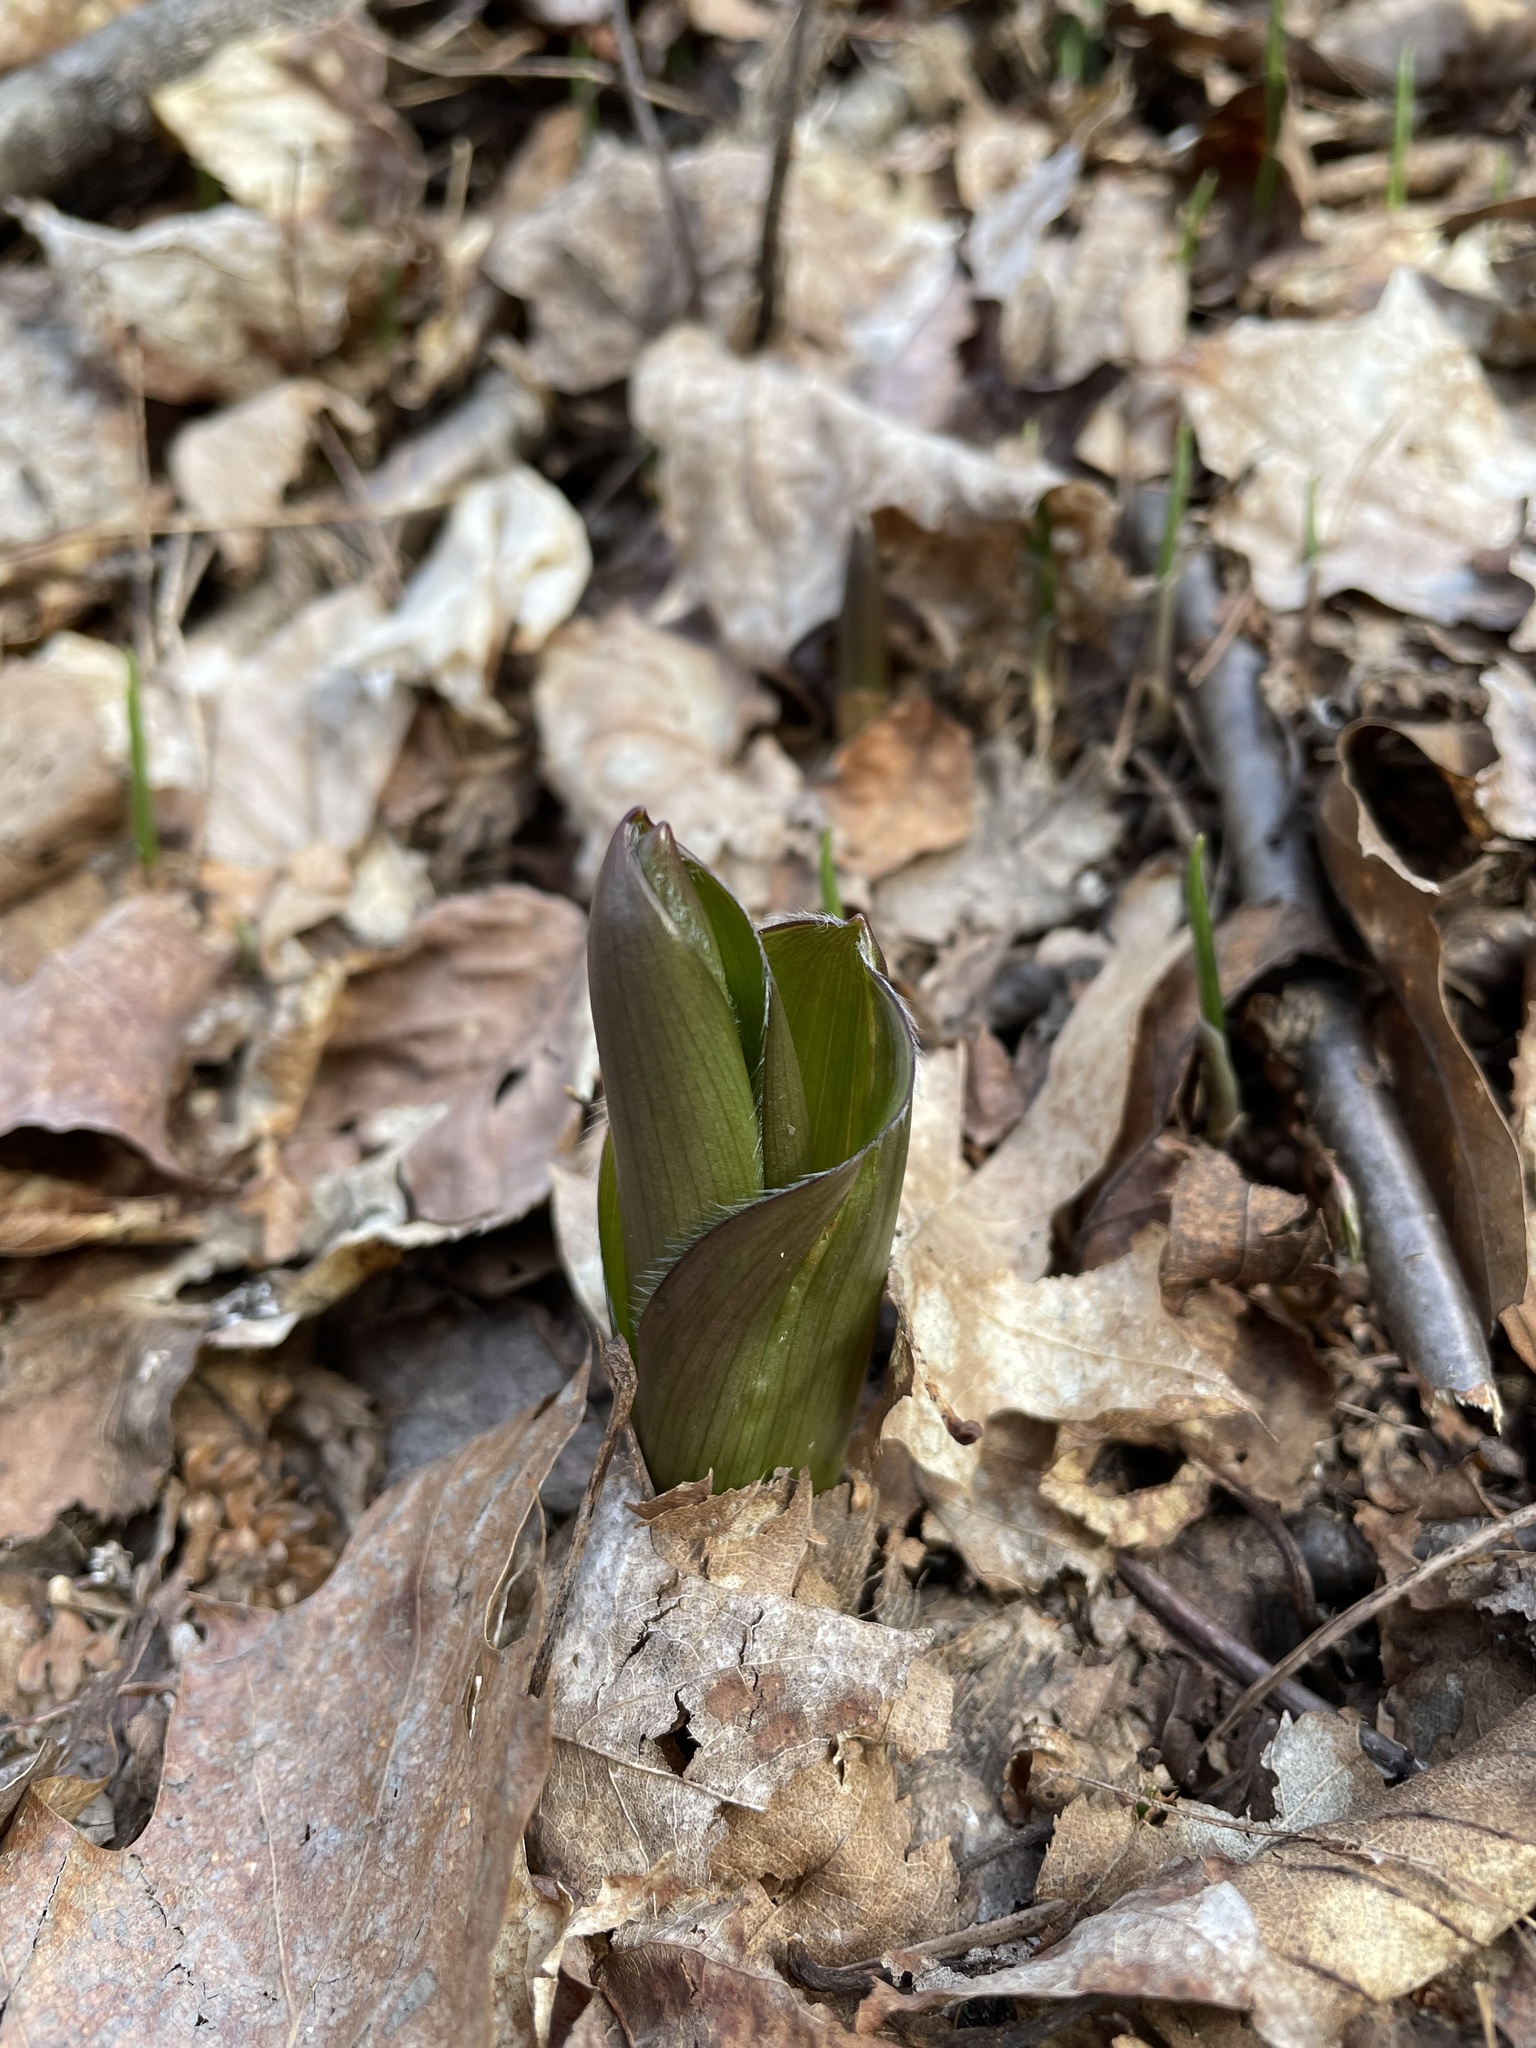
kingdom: Plantae
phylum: Tracheophyta
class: Liliopsida
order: Liliales
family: Liliaceae
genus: Clintonia
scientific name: Clintonia borealis
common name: Yellow clintonia
